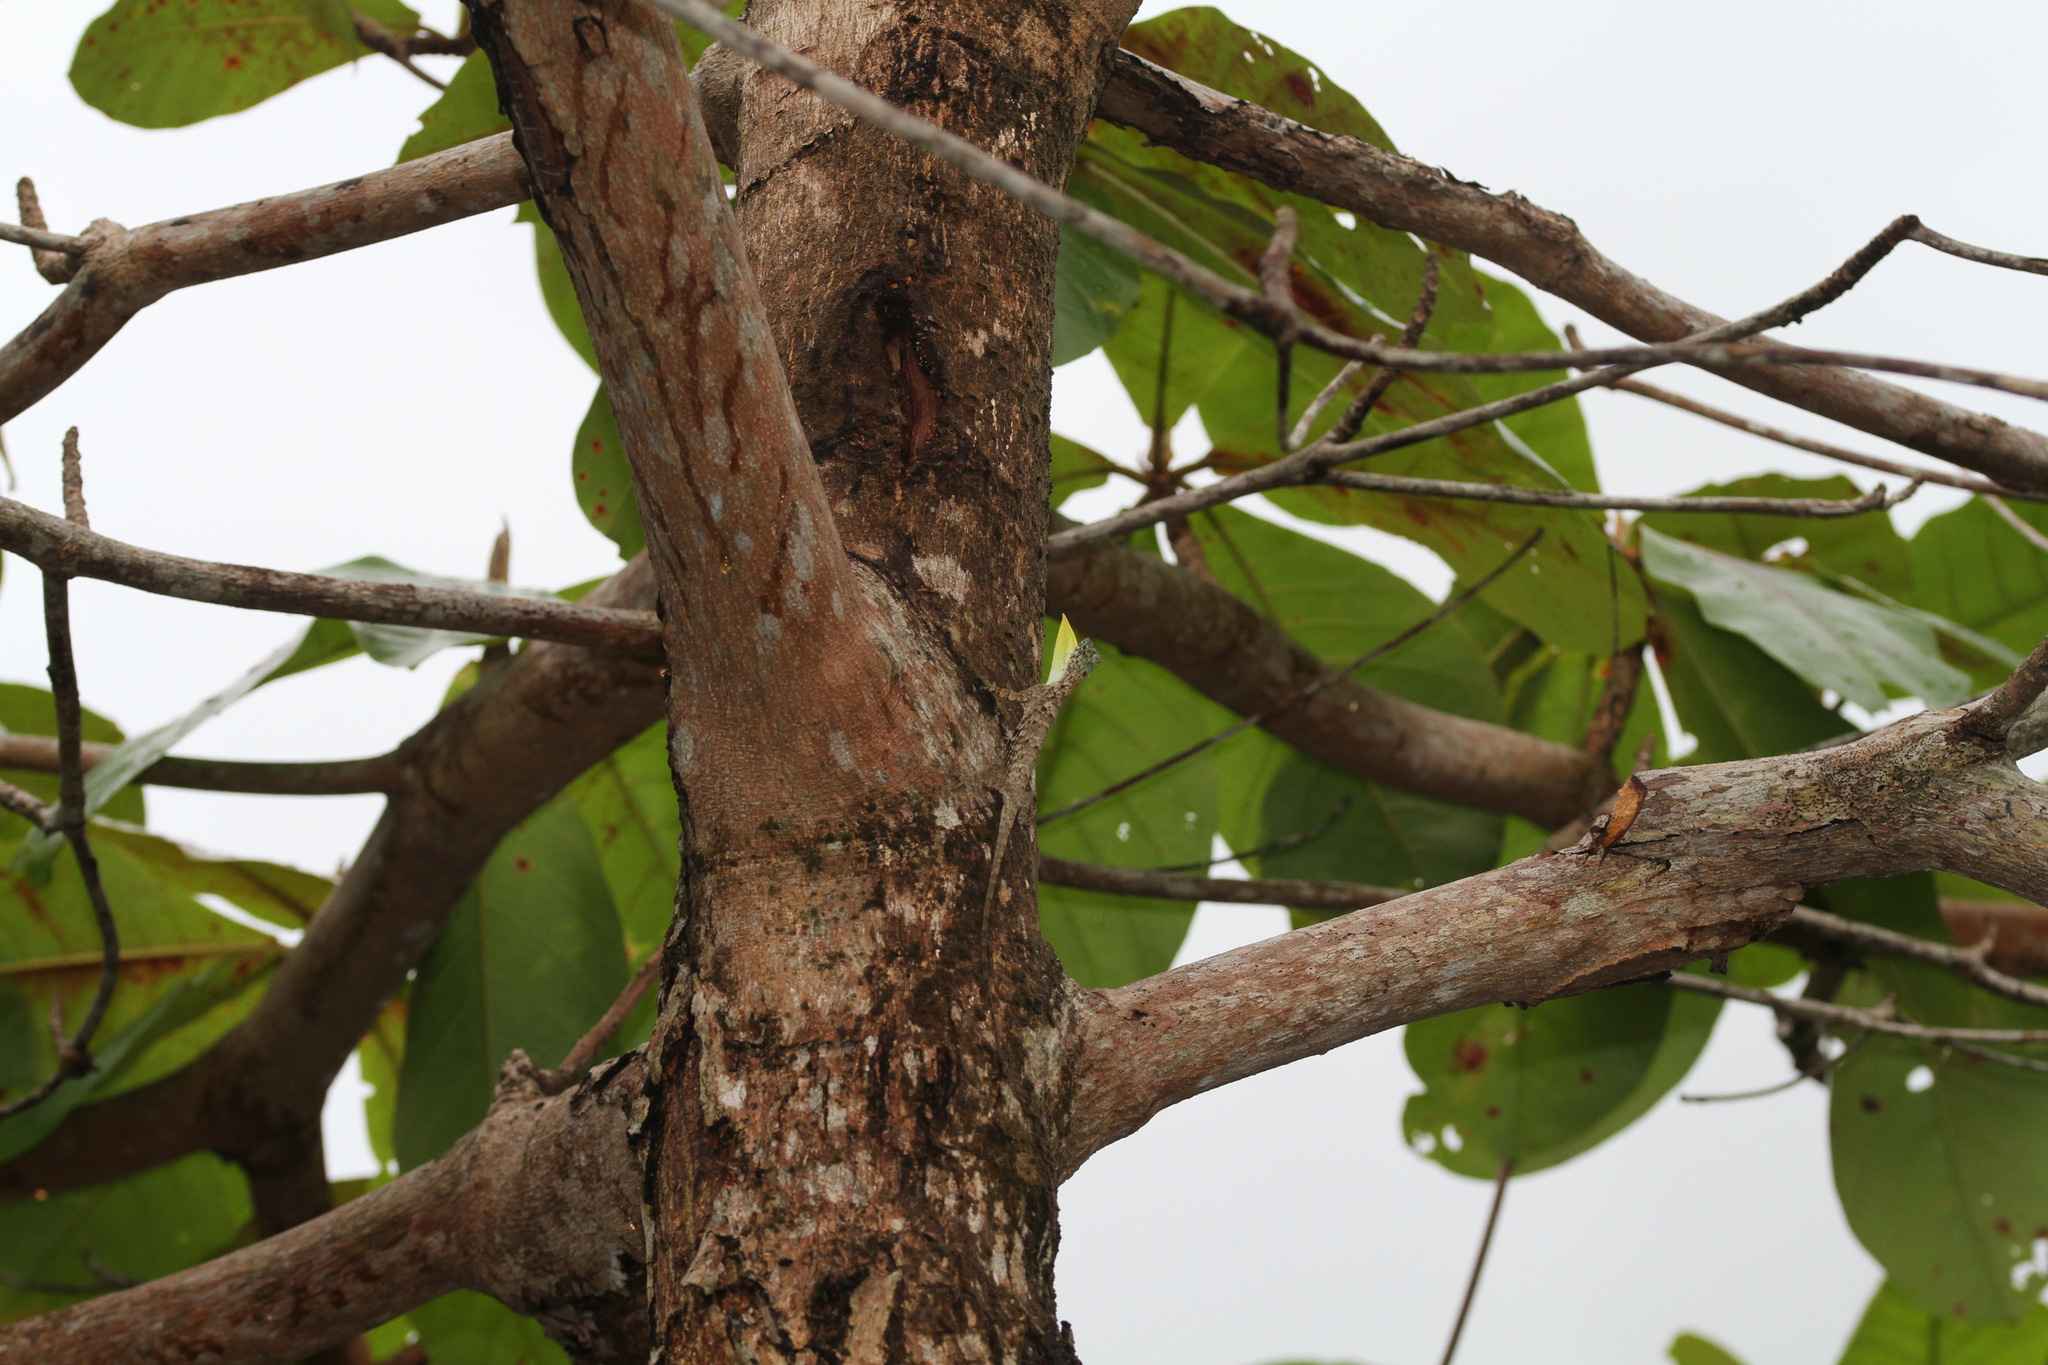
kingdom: Animalia
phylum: Chordata
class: Squamata
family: Agamidae
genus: Draco
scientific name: Draco sumatranus
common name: Common gliding lizard
